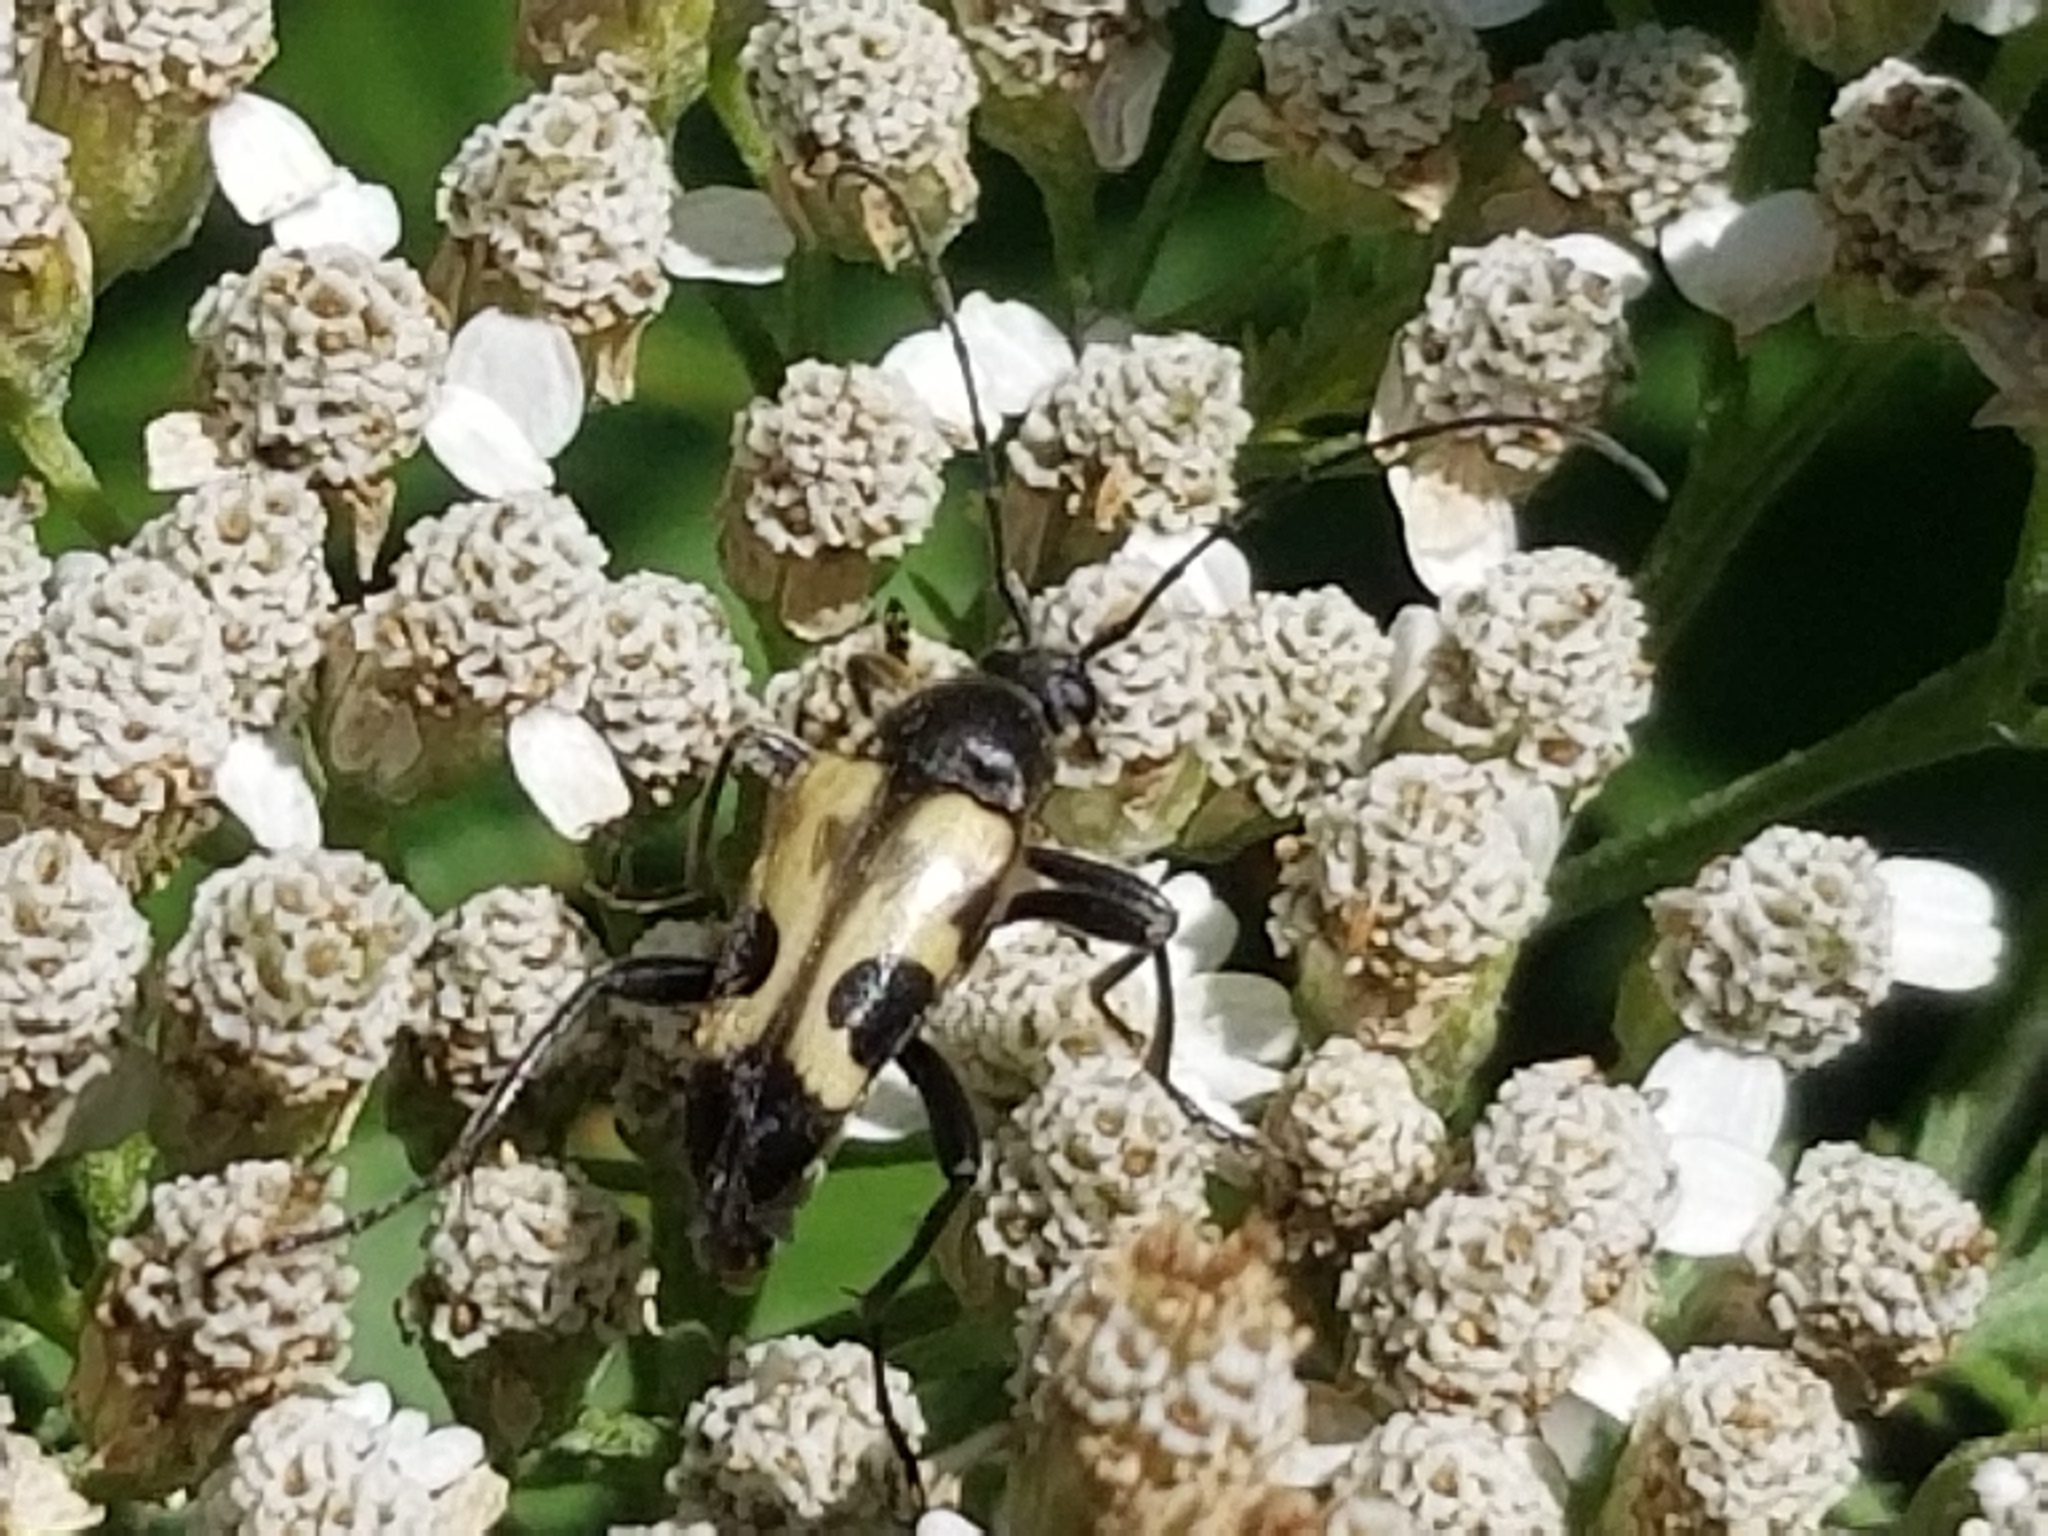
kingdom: Animalia
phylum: Arthropoda
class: Insecta
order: Coleoptera
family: Cerambycidae
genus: Judolia
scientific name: Judolia cordifera
